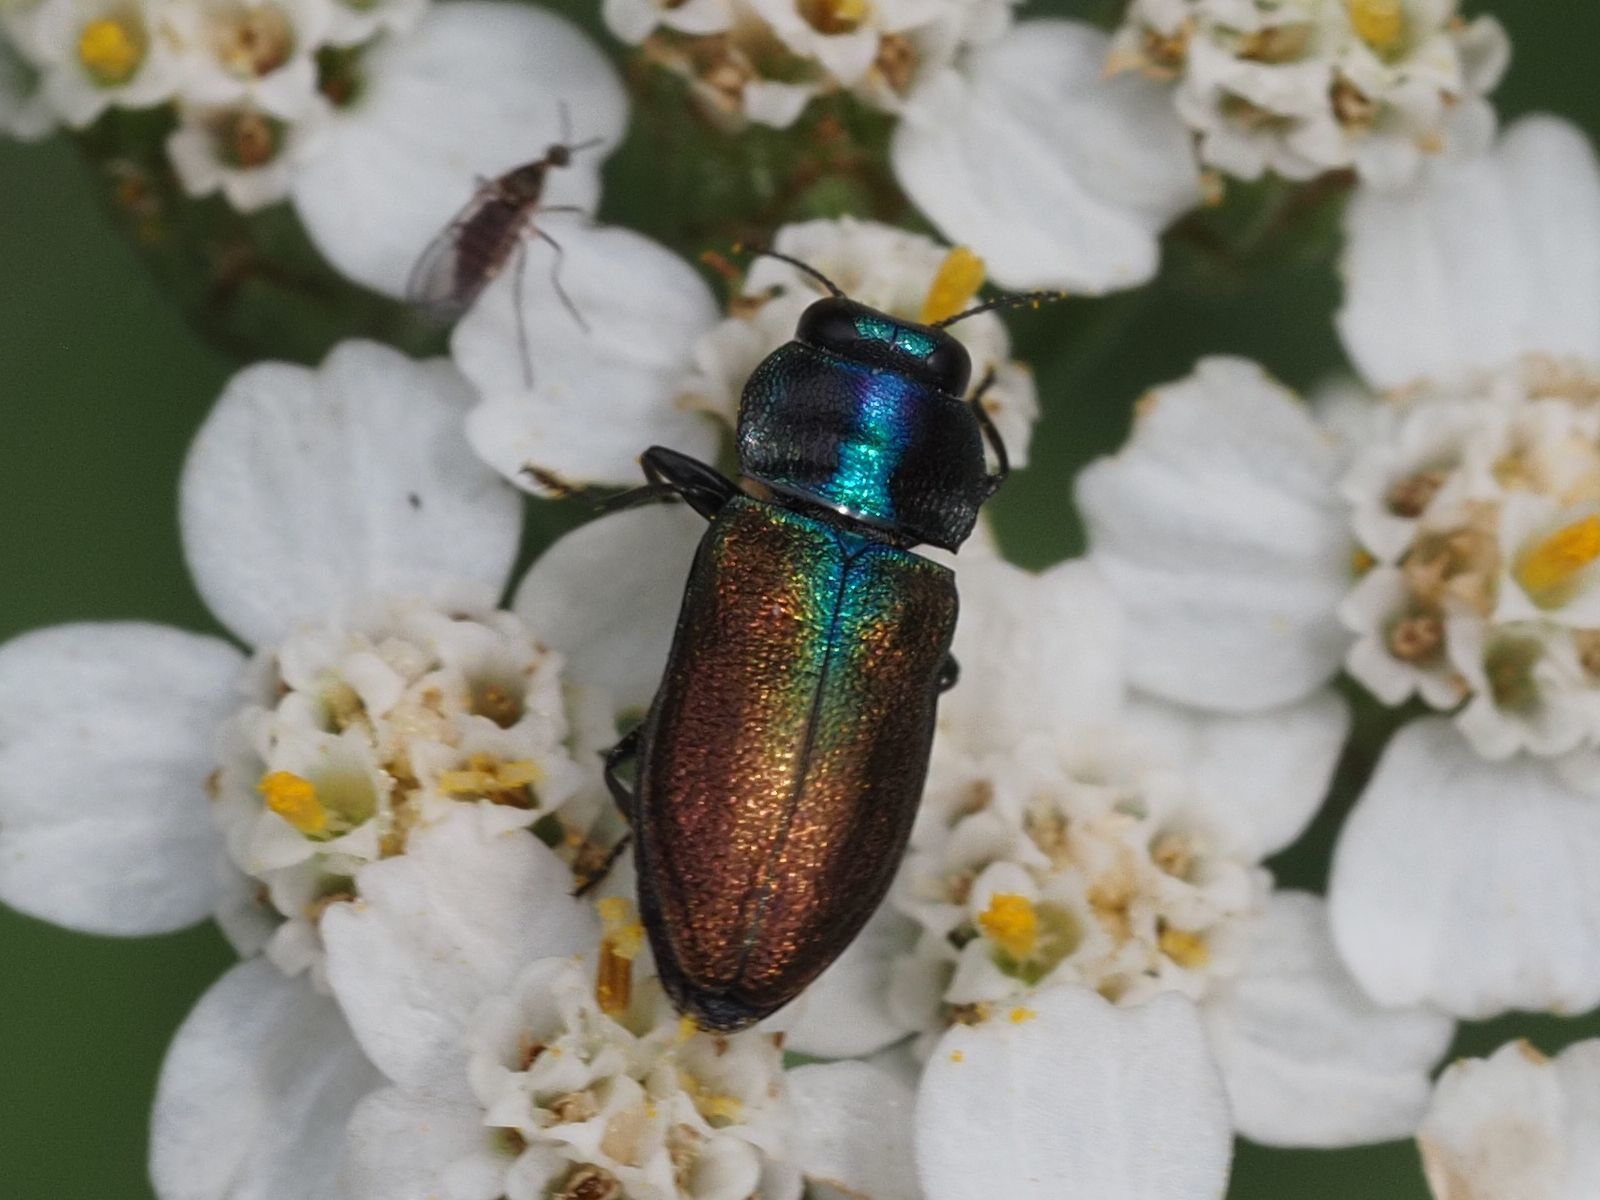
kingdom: Animalia
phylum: Arthropoda
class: Insecta
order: Coleoptera
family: Buprestidae
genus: Anthaxia
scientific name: Anthaxia podolica
